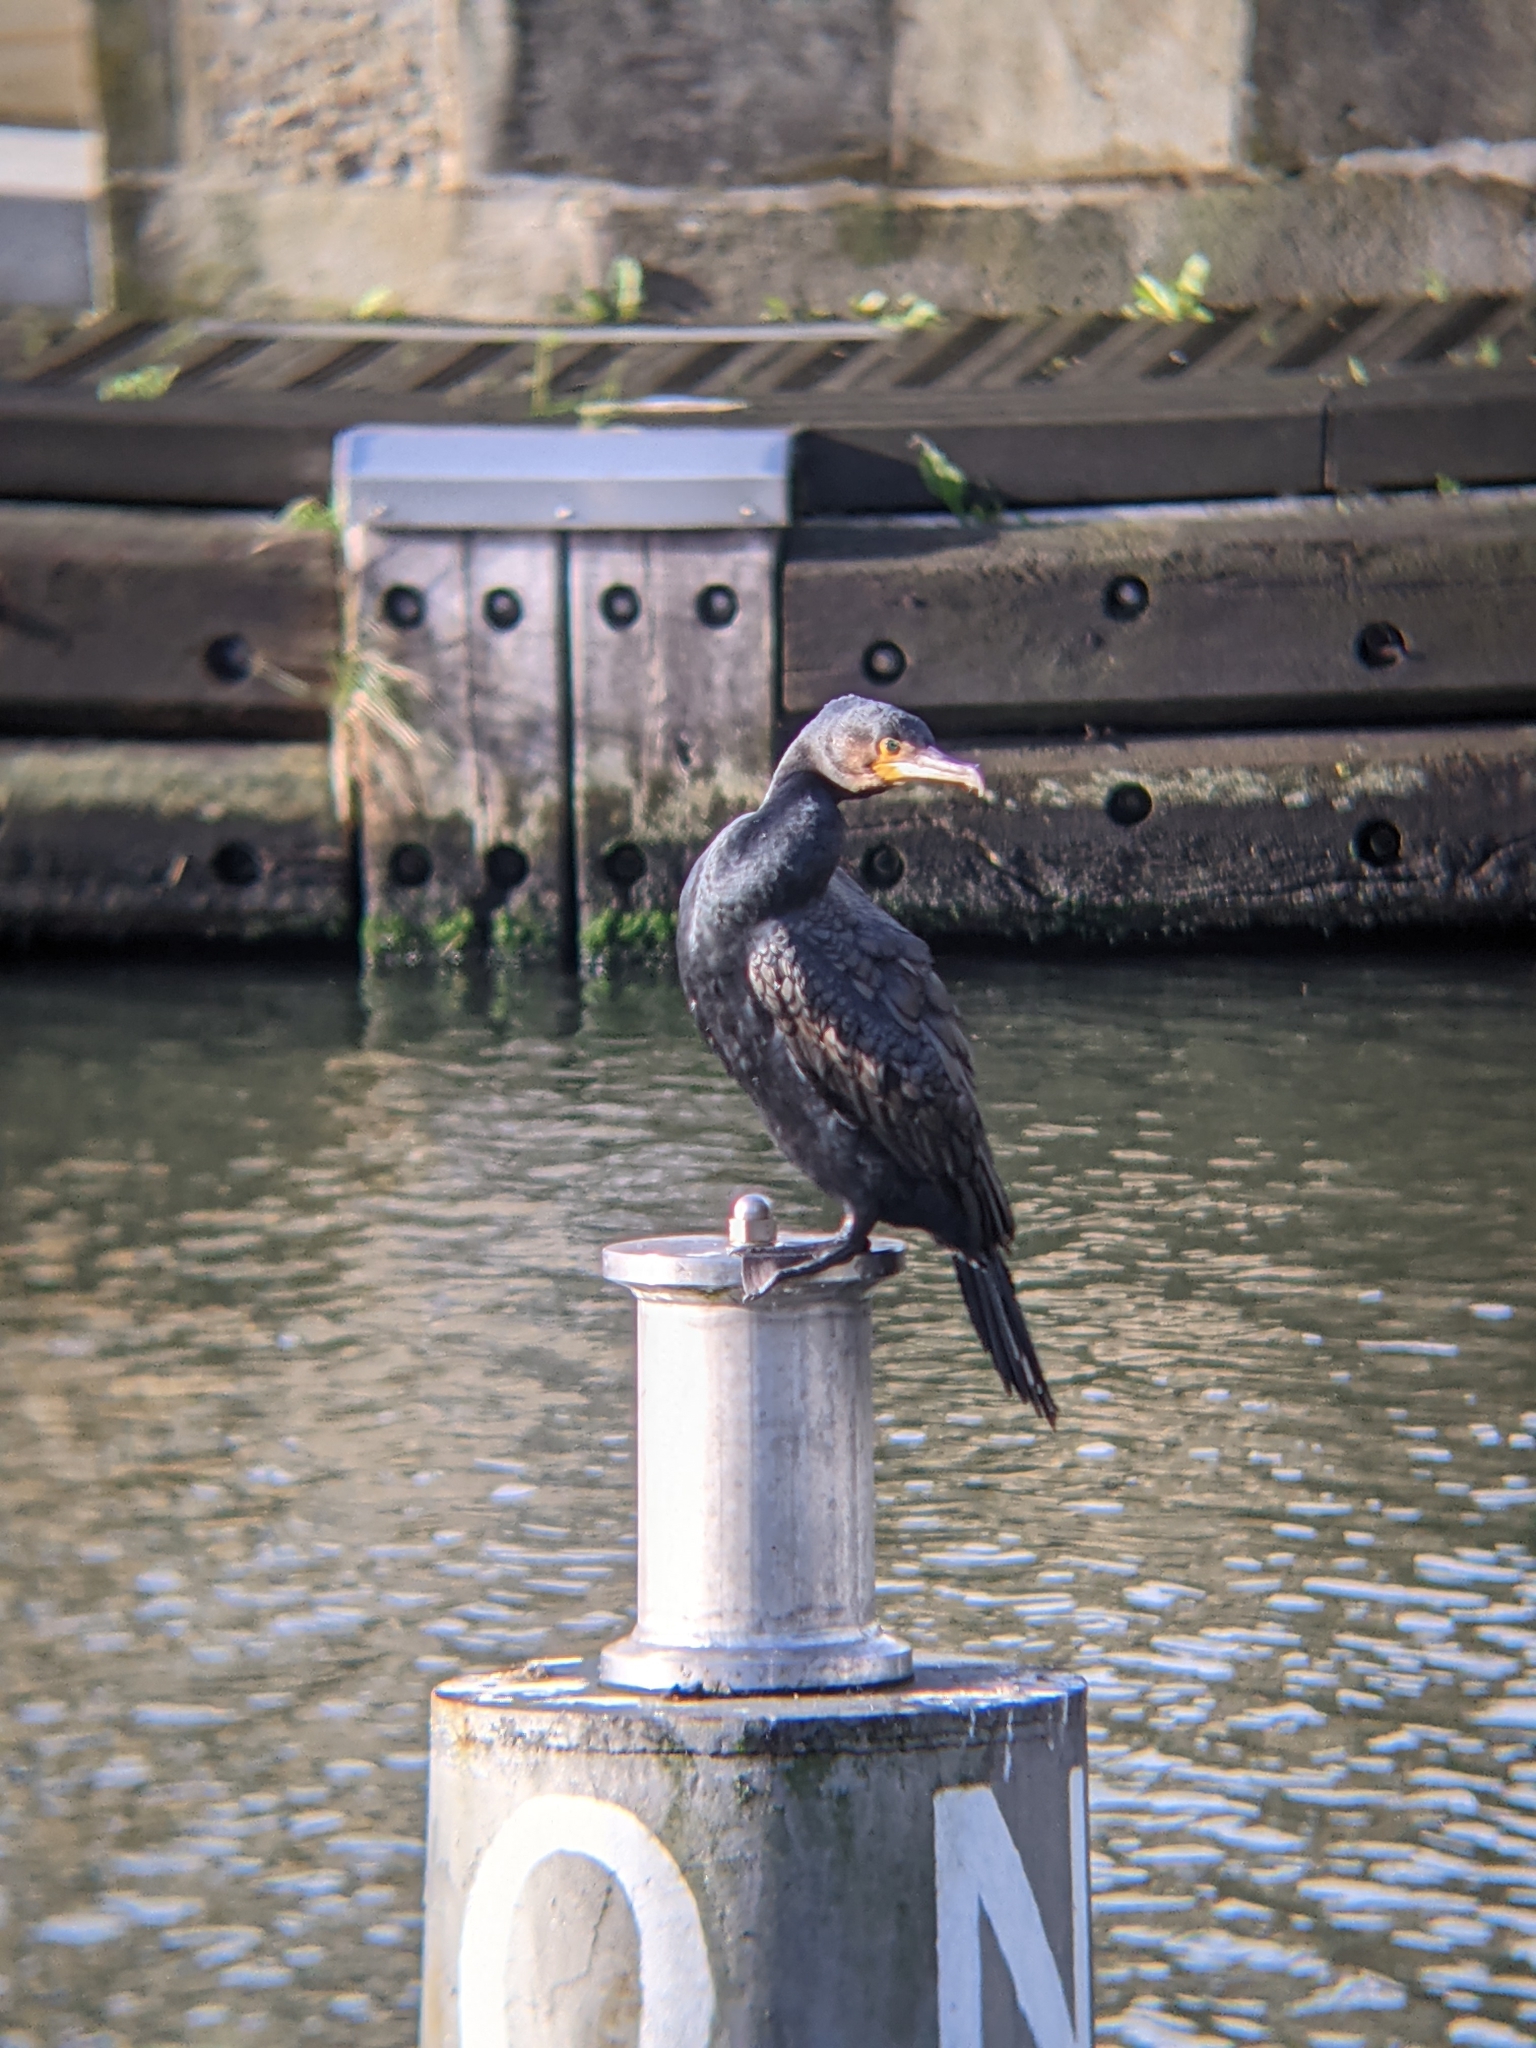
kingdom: Animalia
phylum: Chordata
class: Aves
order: Suliformes
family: Phalacrocoracidae
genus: Phalacrocorax
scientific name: Phalacrocorax carbo
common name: Great cormorant
